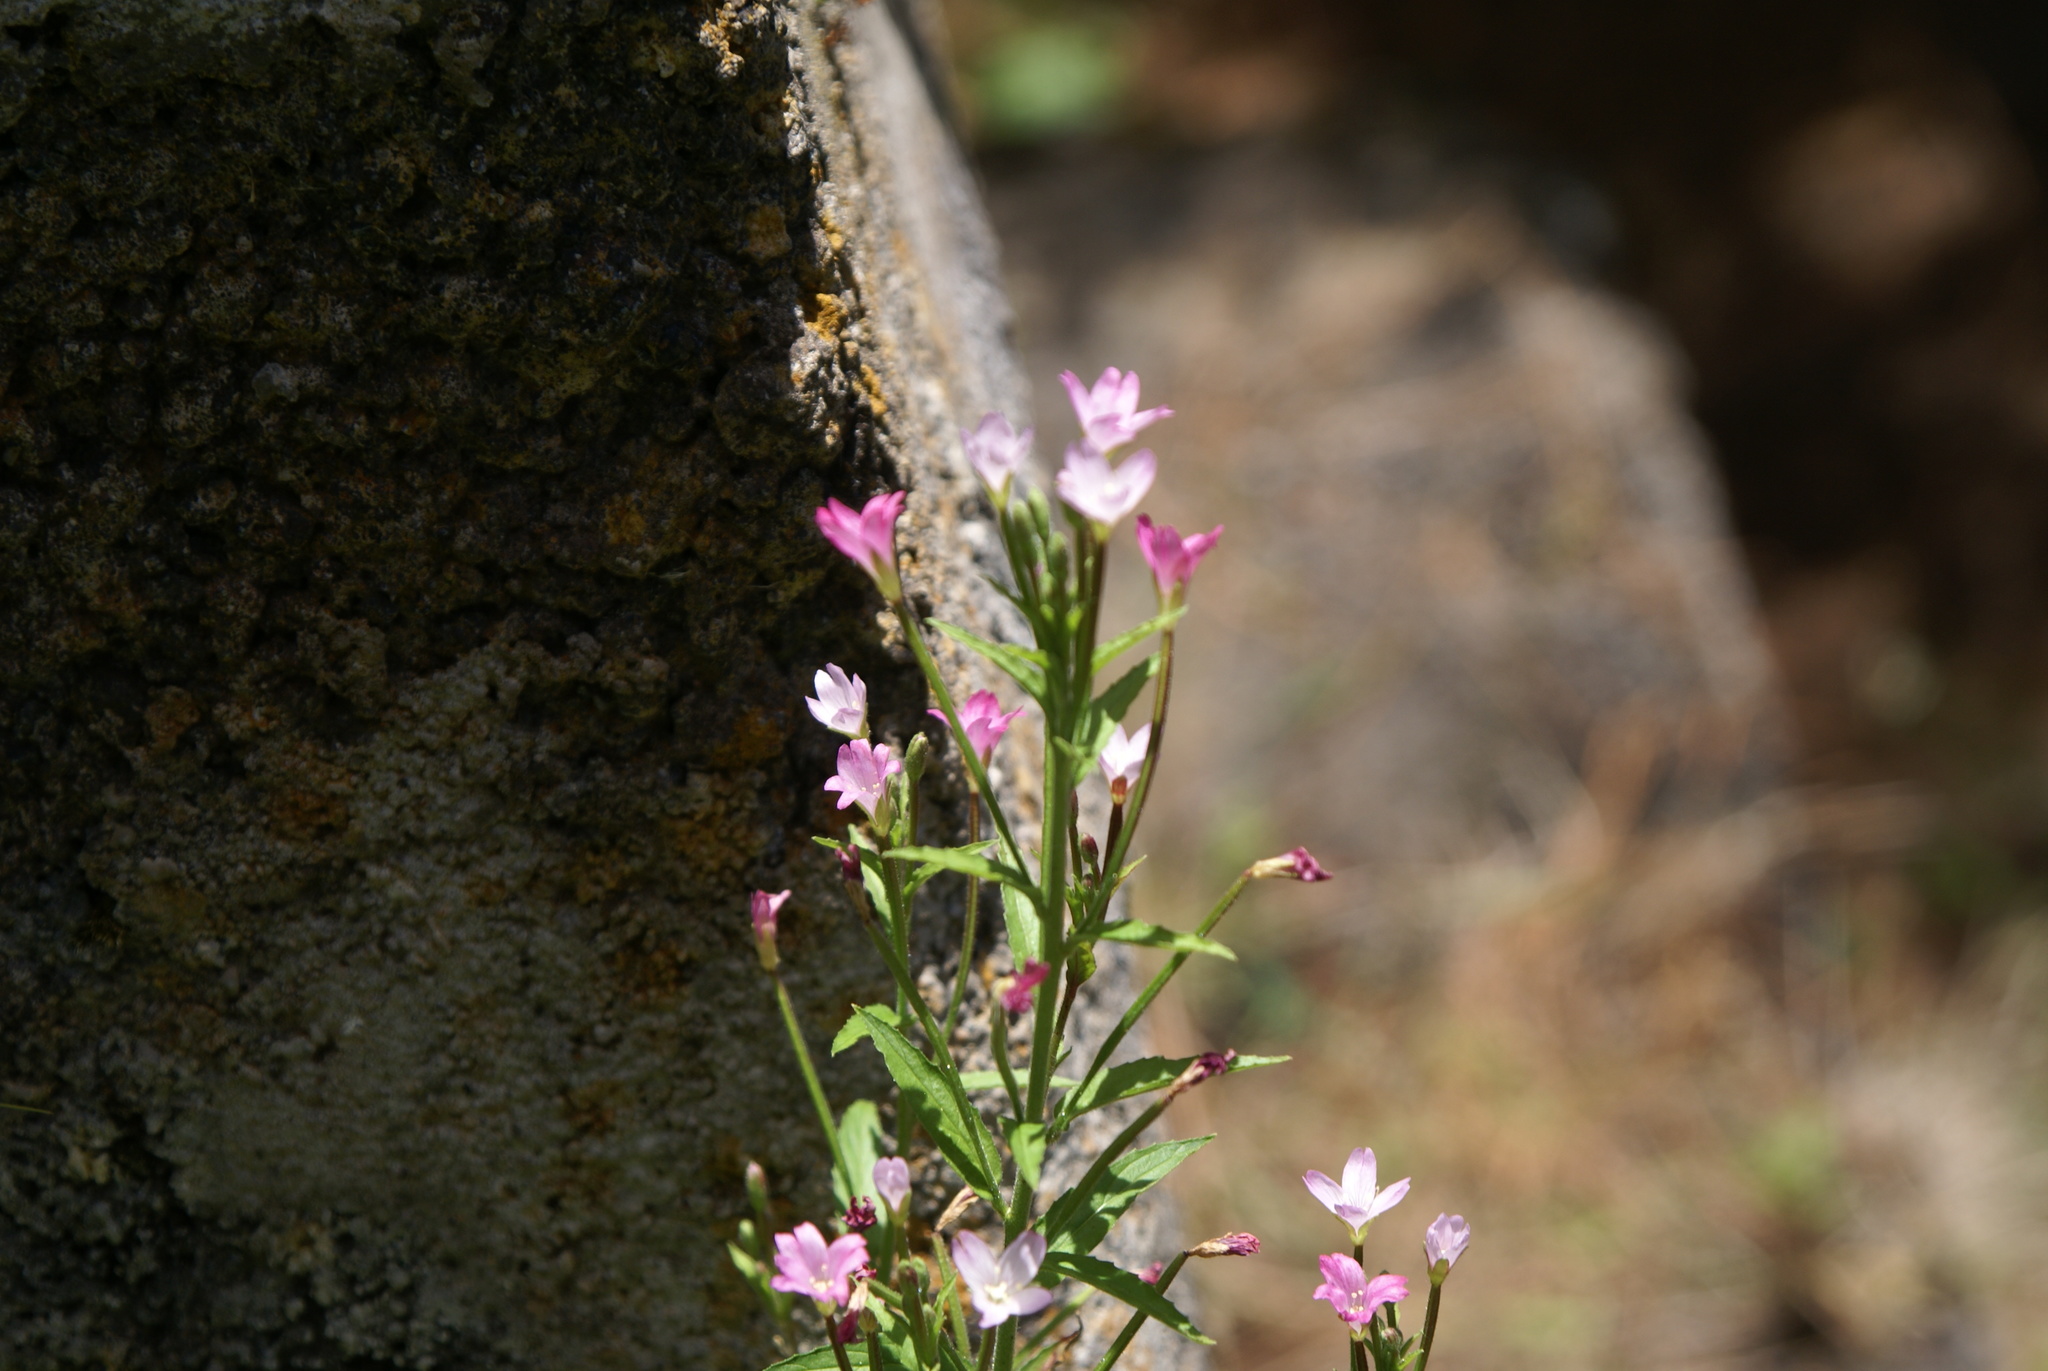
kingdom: Plantae
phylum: Tracheophyta
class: Magnoliopsida
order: Myrtales
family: Onagraceae
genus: Epilobium
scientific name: Epilobium parviflorum
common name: Hoary willowherb
